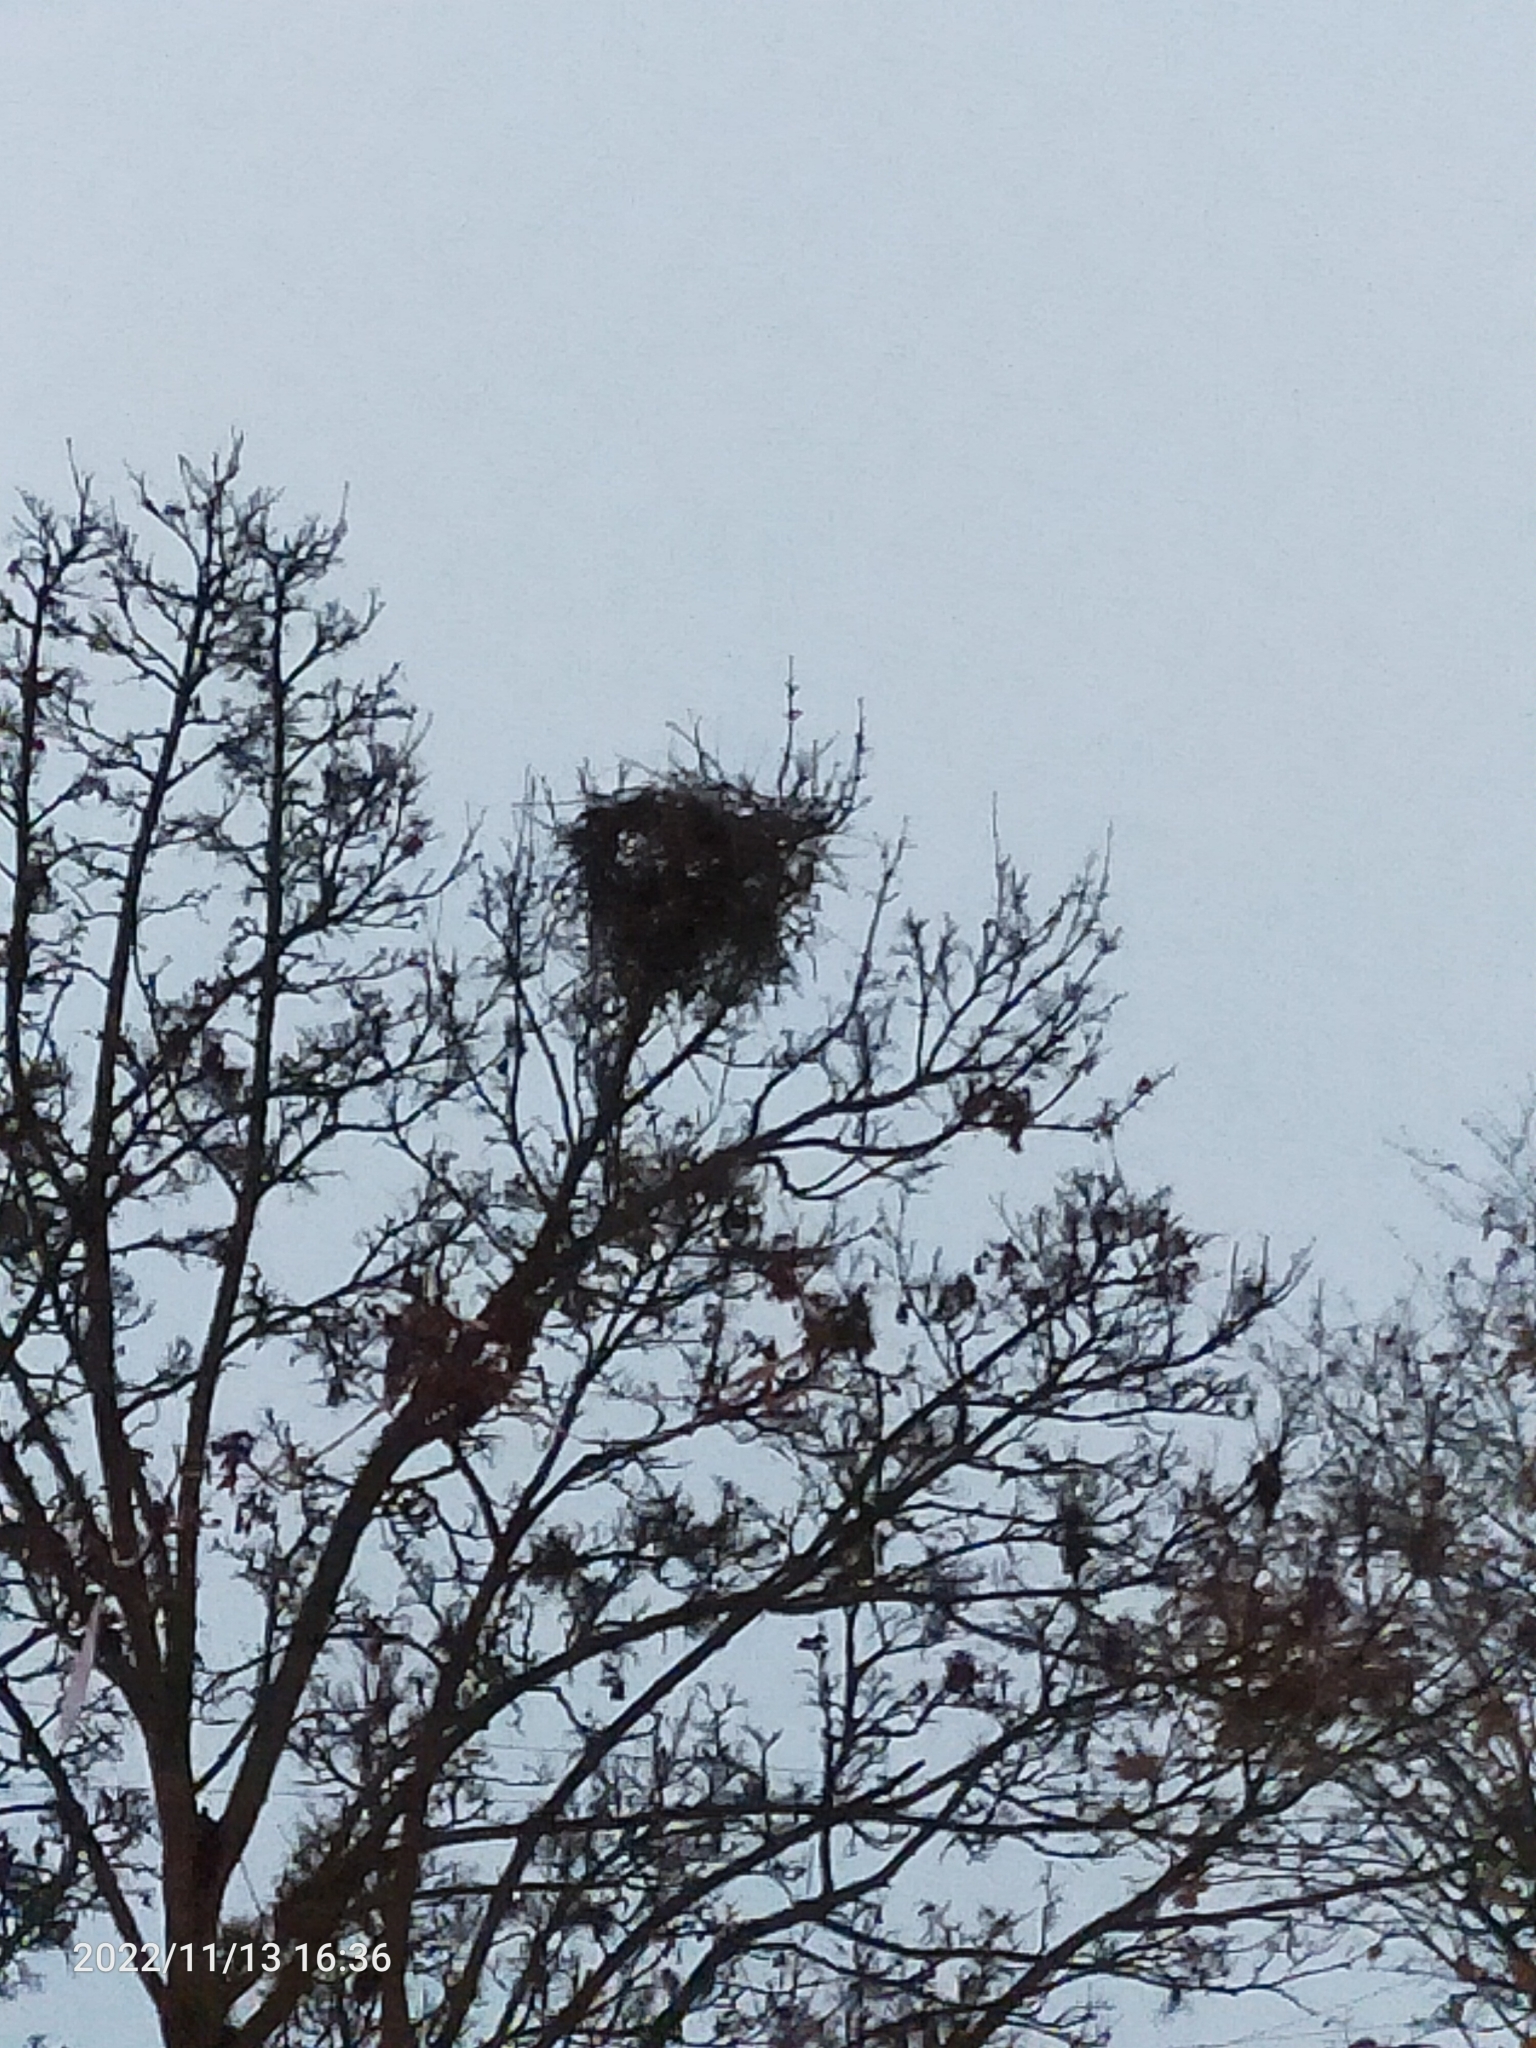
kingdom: Animalia
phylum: Chordata
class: Aves
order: Passeriformes
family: Corvidae
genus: Pica
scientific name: Pica pica
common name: Eurasian magpie
